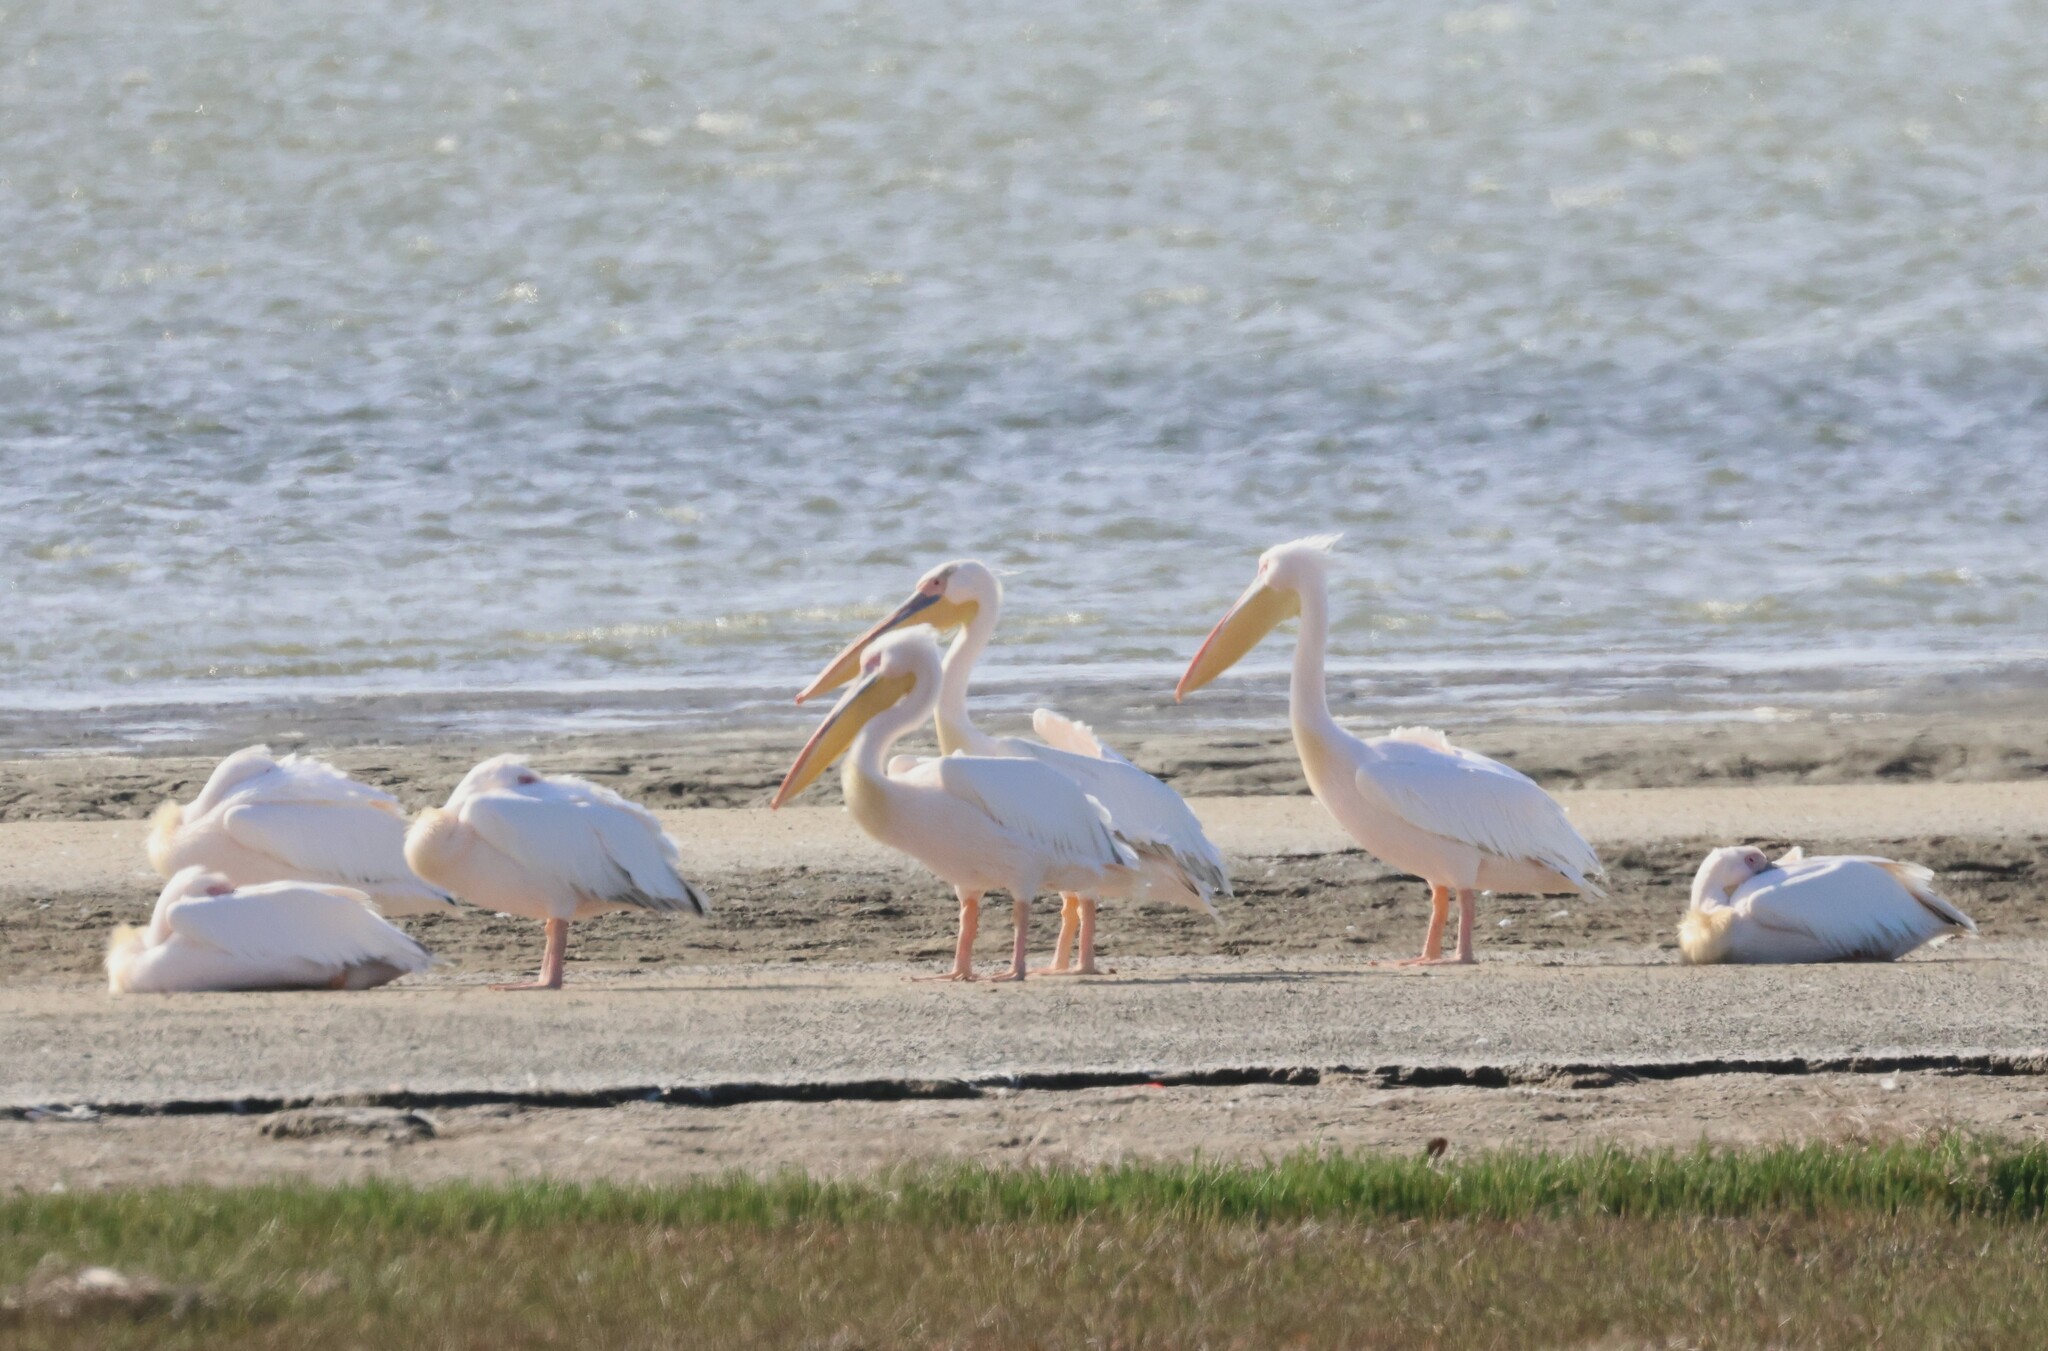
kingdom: Animalia
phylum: Chordata
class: Aves
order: Pelecaniformes
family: Pelecanidae
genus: Pelecanus
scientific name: Pelecanus onocrotalus
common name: Great white pelican
